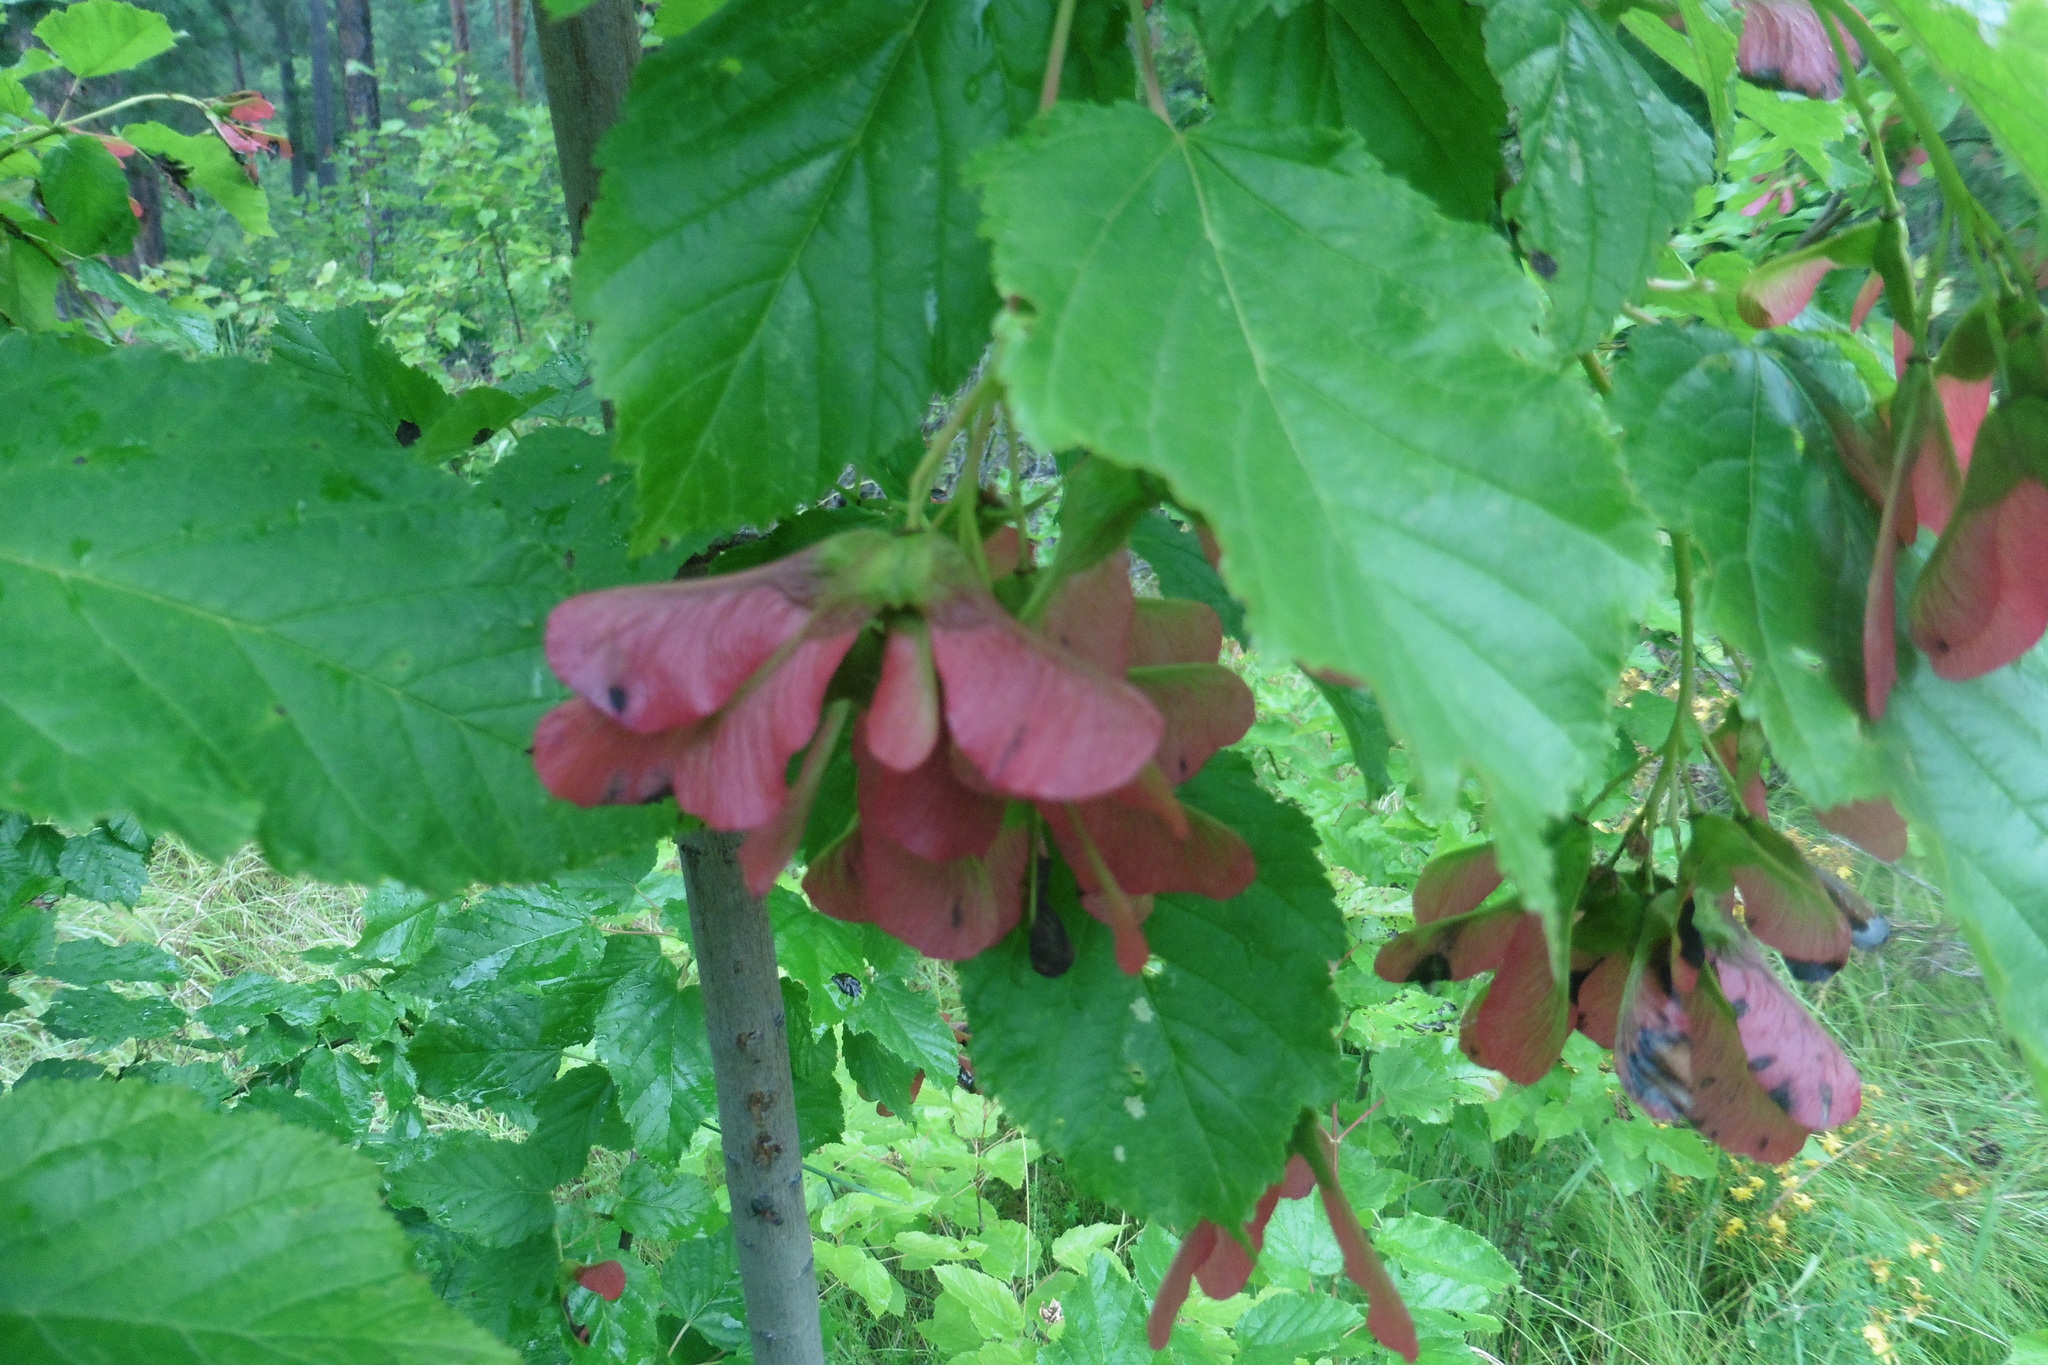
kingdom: Plantae
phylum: Tracheophyta
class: Magnoliopsida
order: Sapindales
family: Sapindaceae
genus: Acer
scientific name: Acer tataricum
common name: Tartar maple
